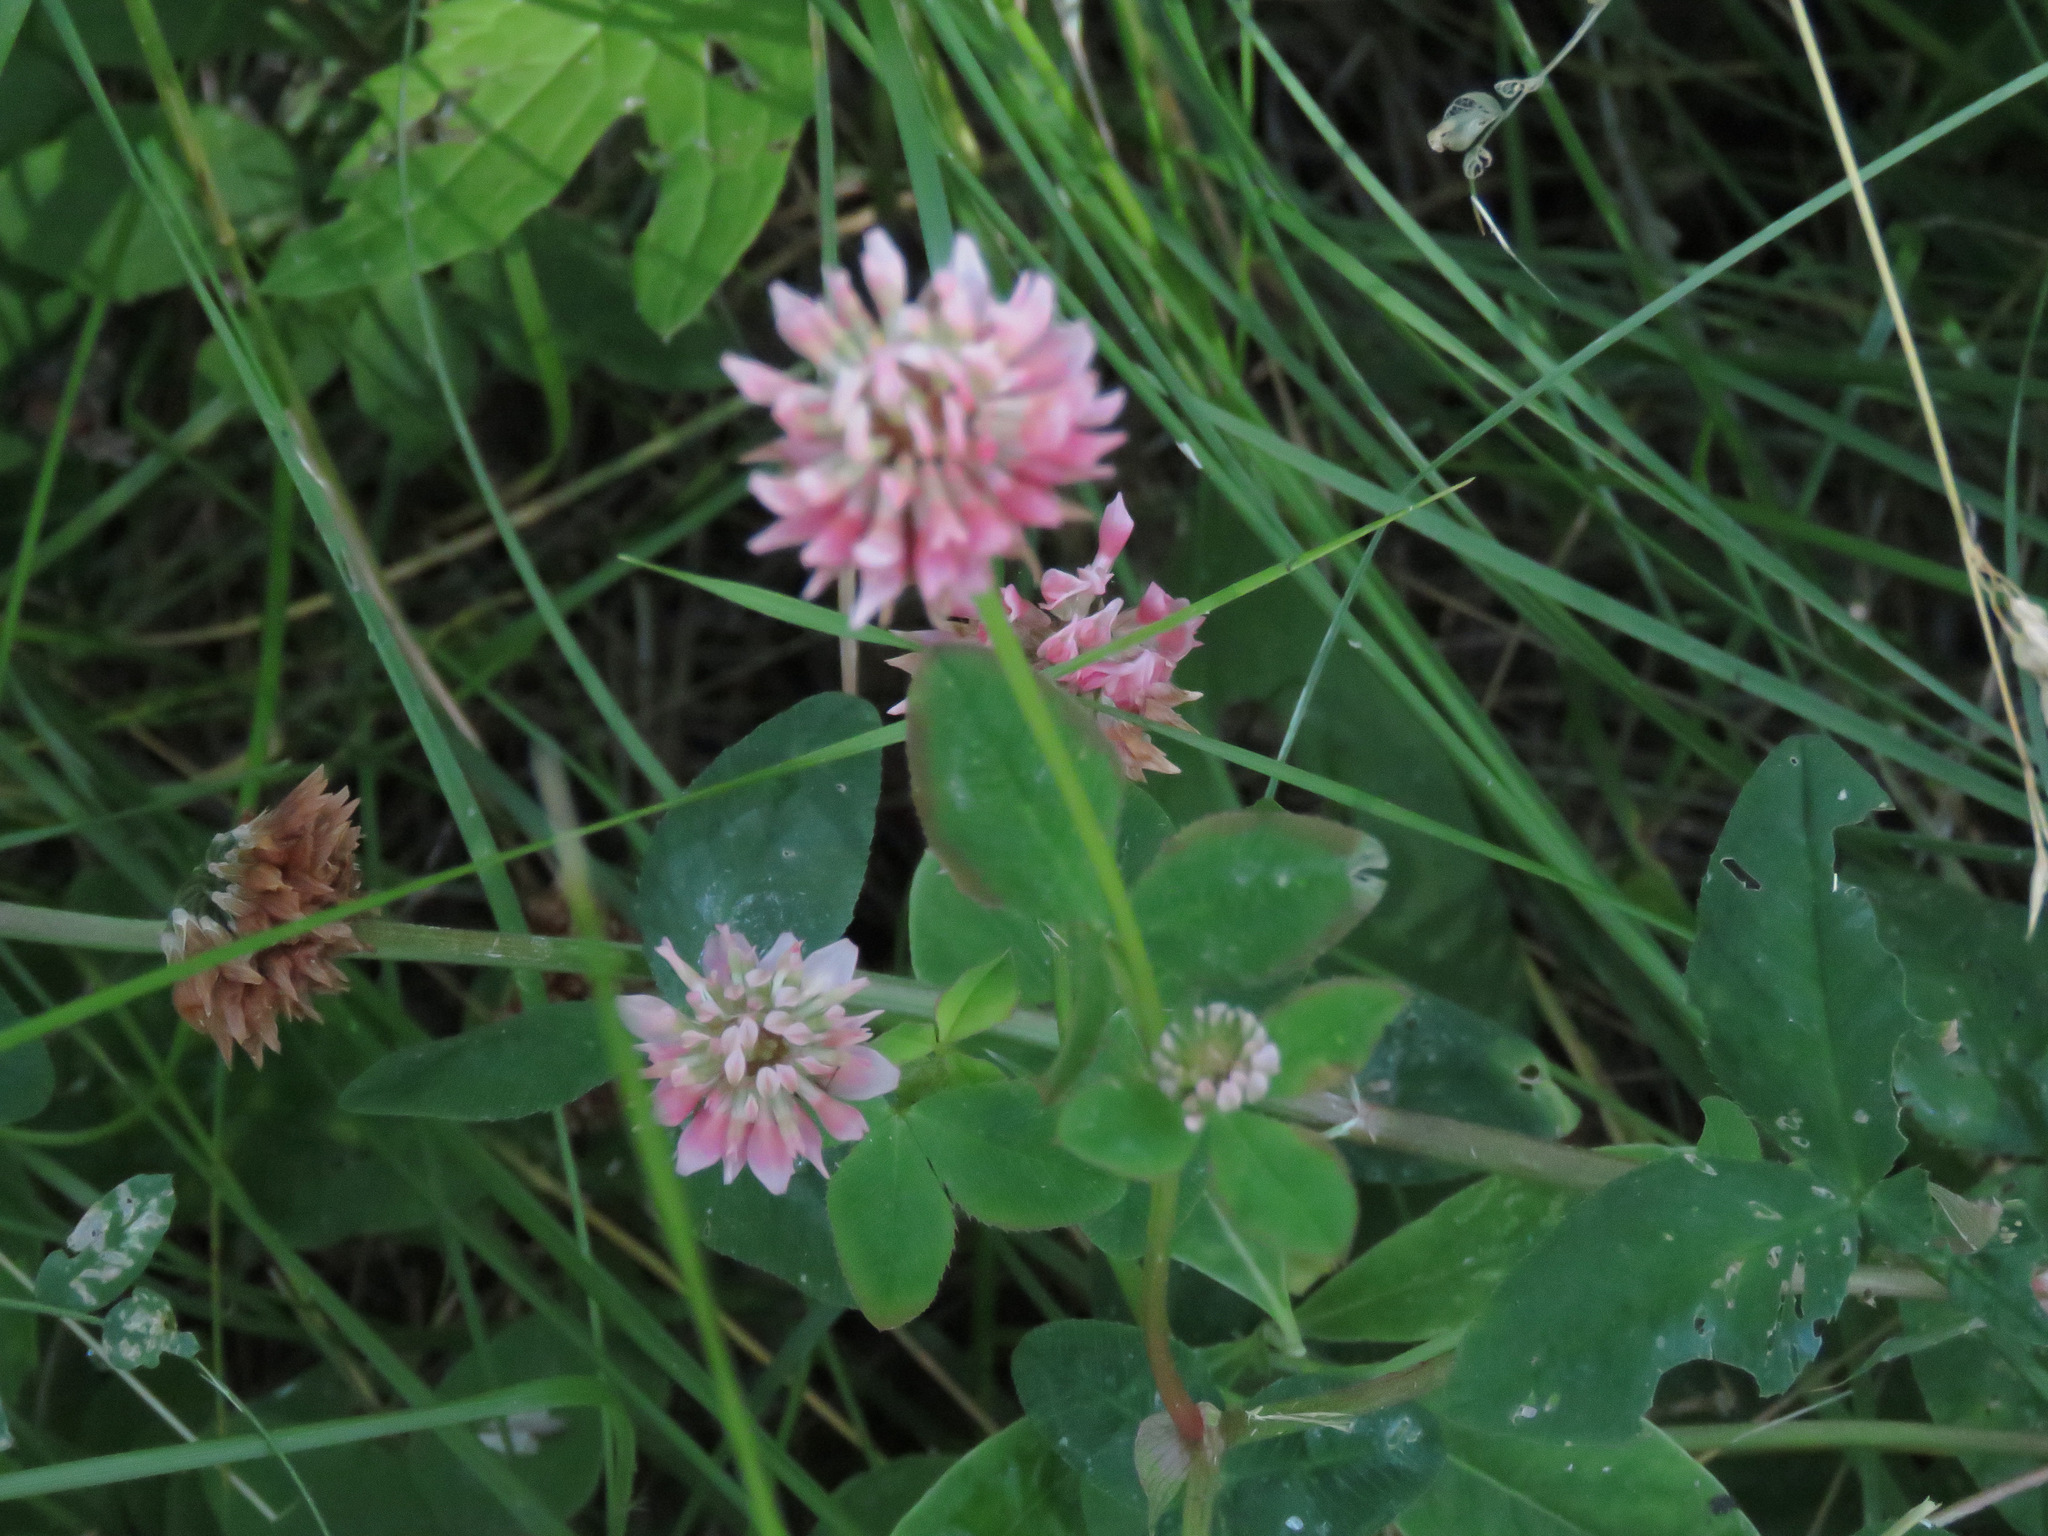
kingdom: Plantae
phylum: Tracheophyta
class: Magnoliopsida
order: Fabales
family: Fabaceae
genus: Trifolium
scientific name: Trifolium hybridum
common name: Alsike clover
